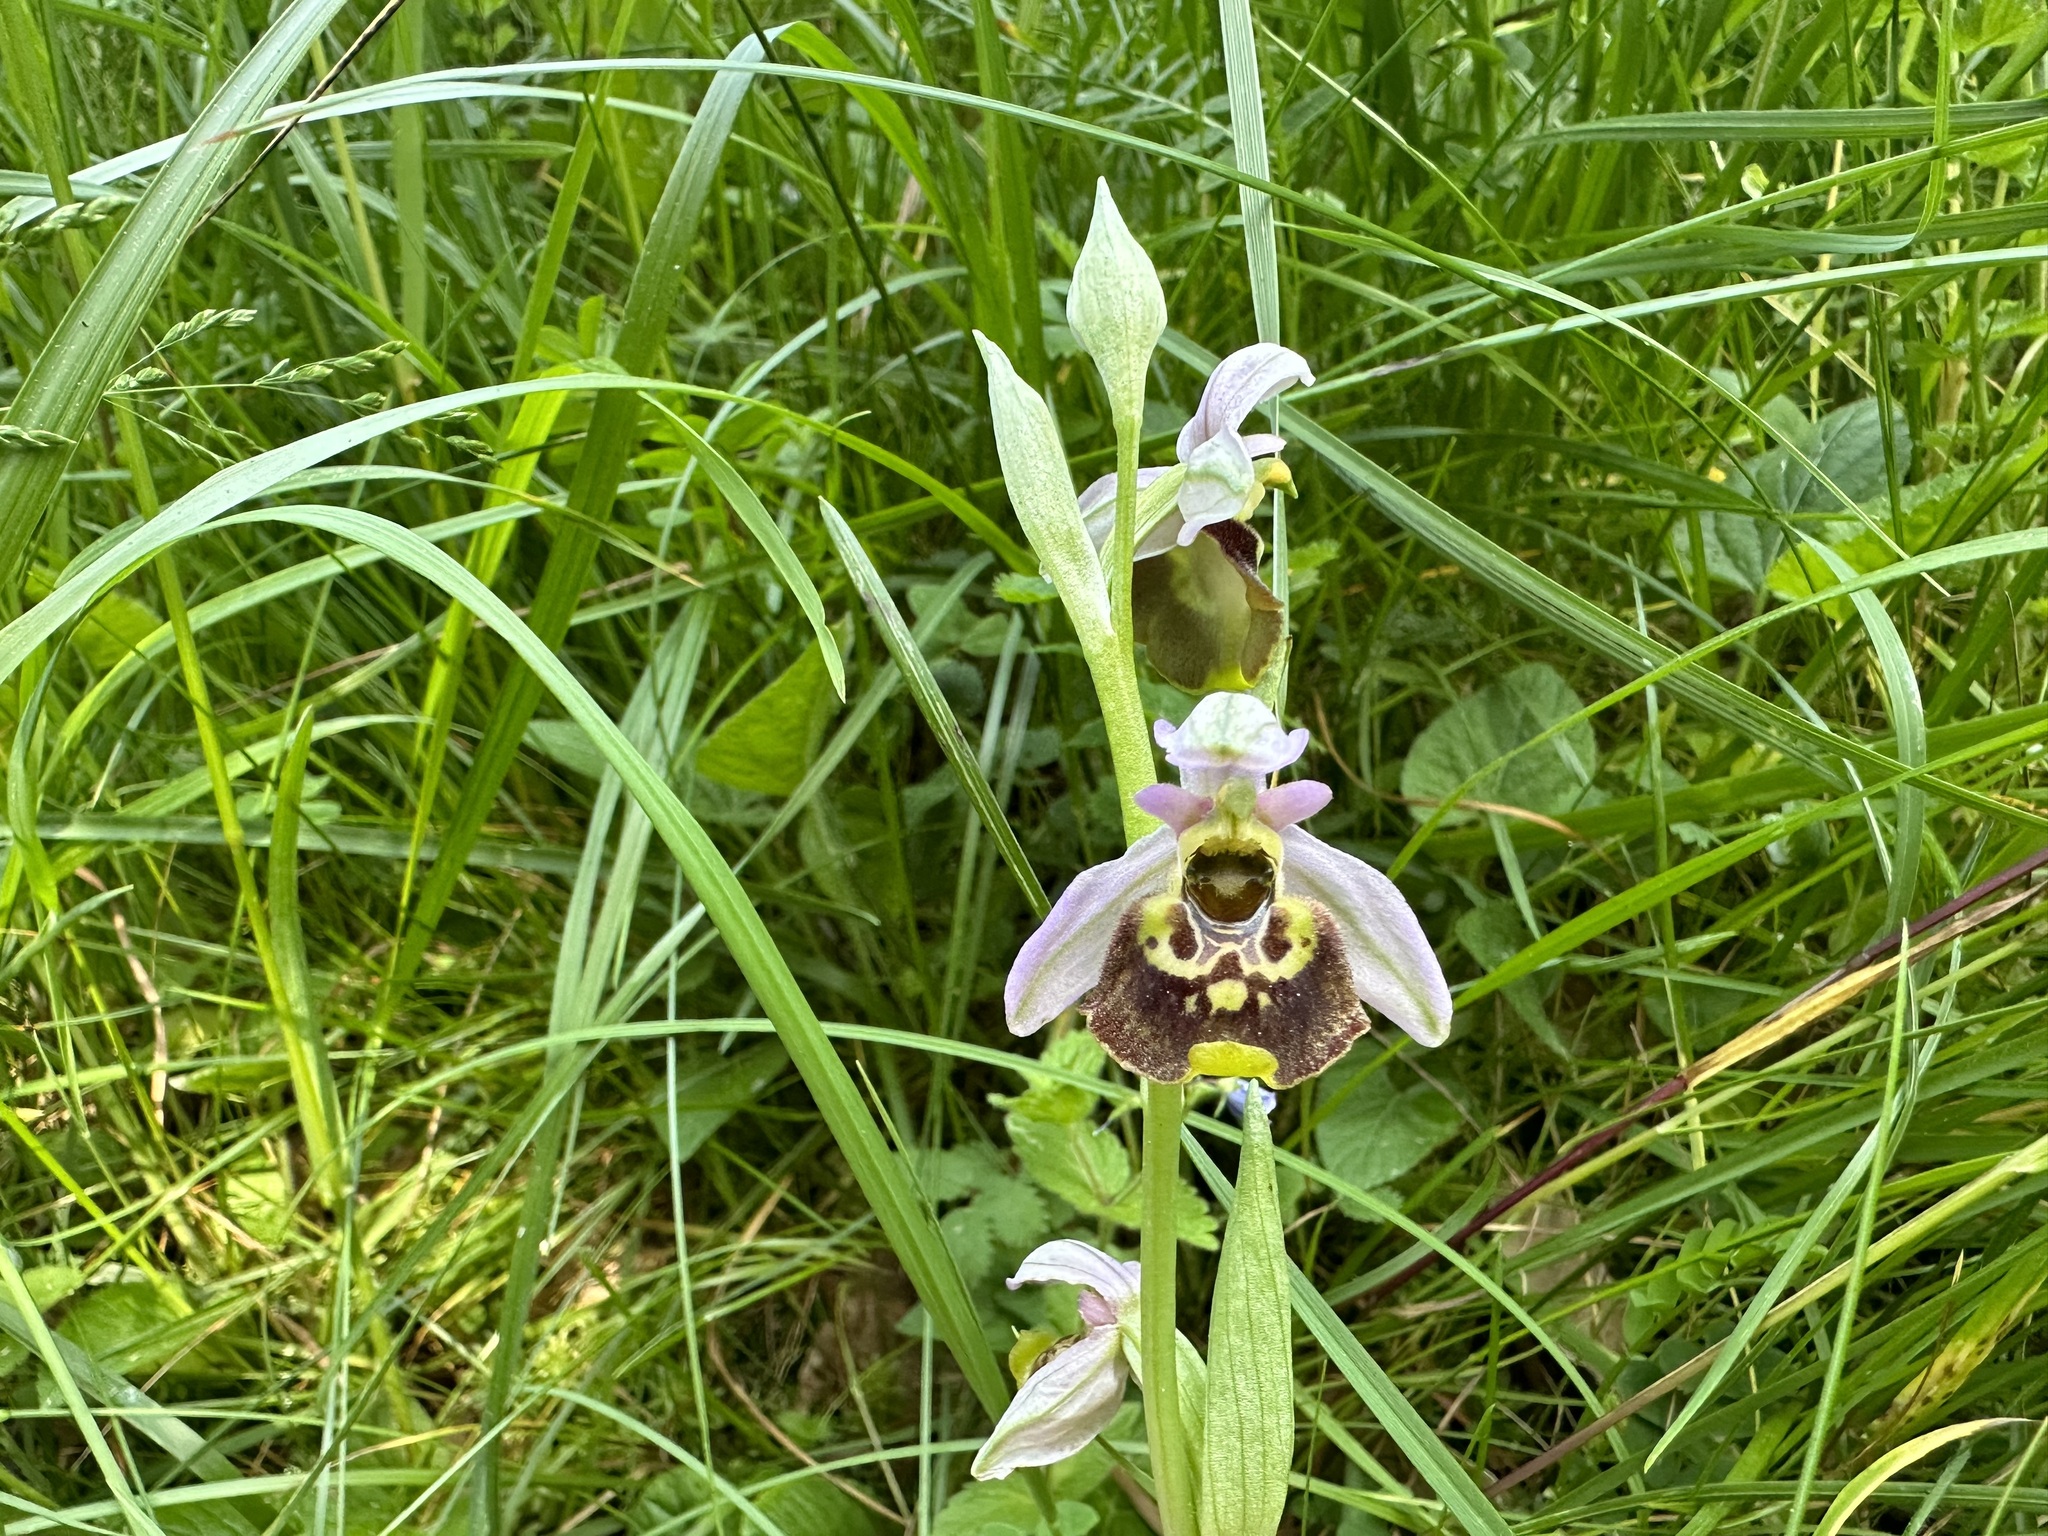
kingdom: Plantae
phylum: Tracheophyta
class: Liliopsida
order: Asparagales
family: Orchidaceae
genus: Ophrys
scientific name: Ophrys holosericea
